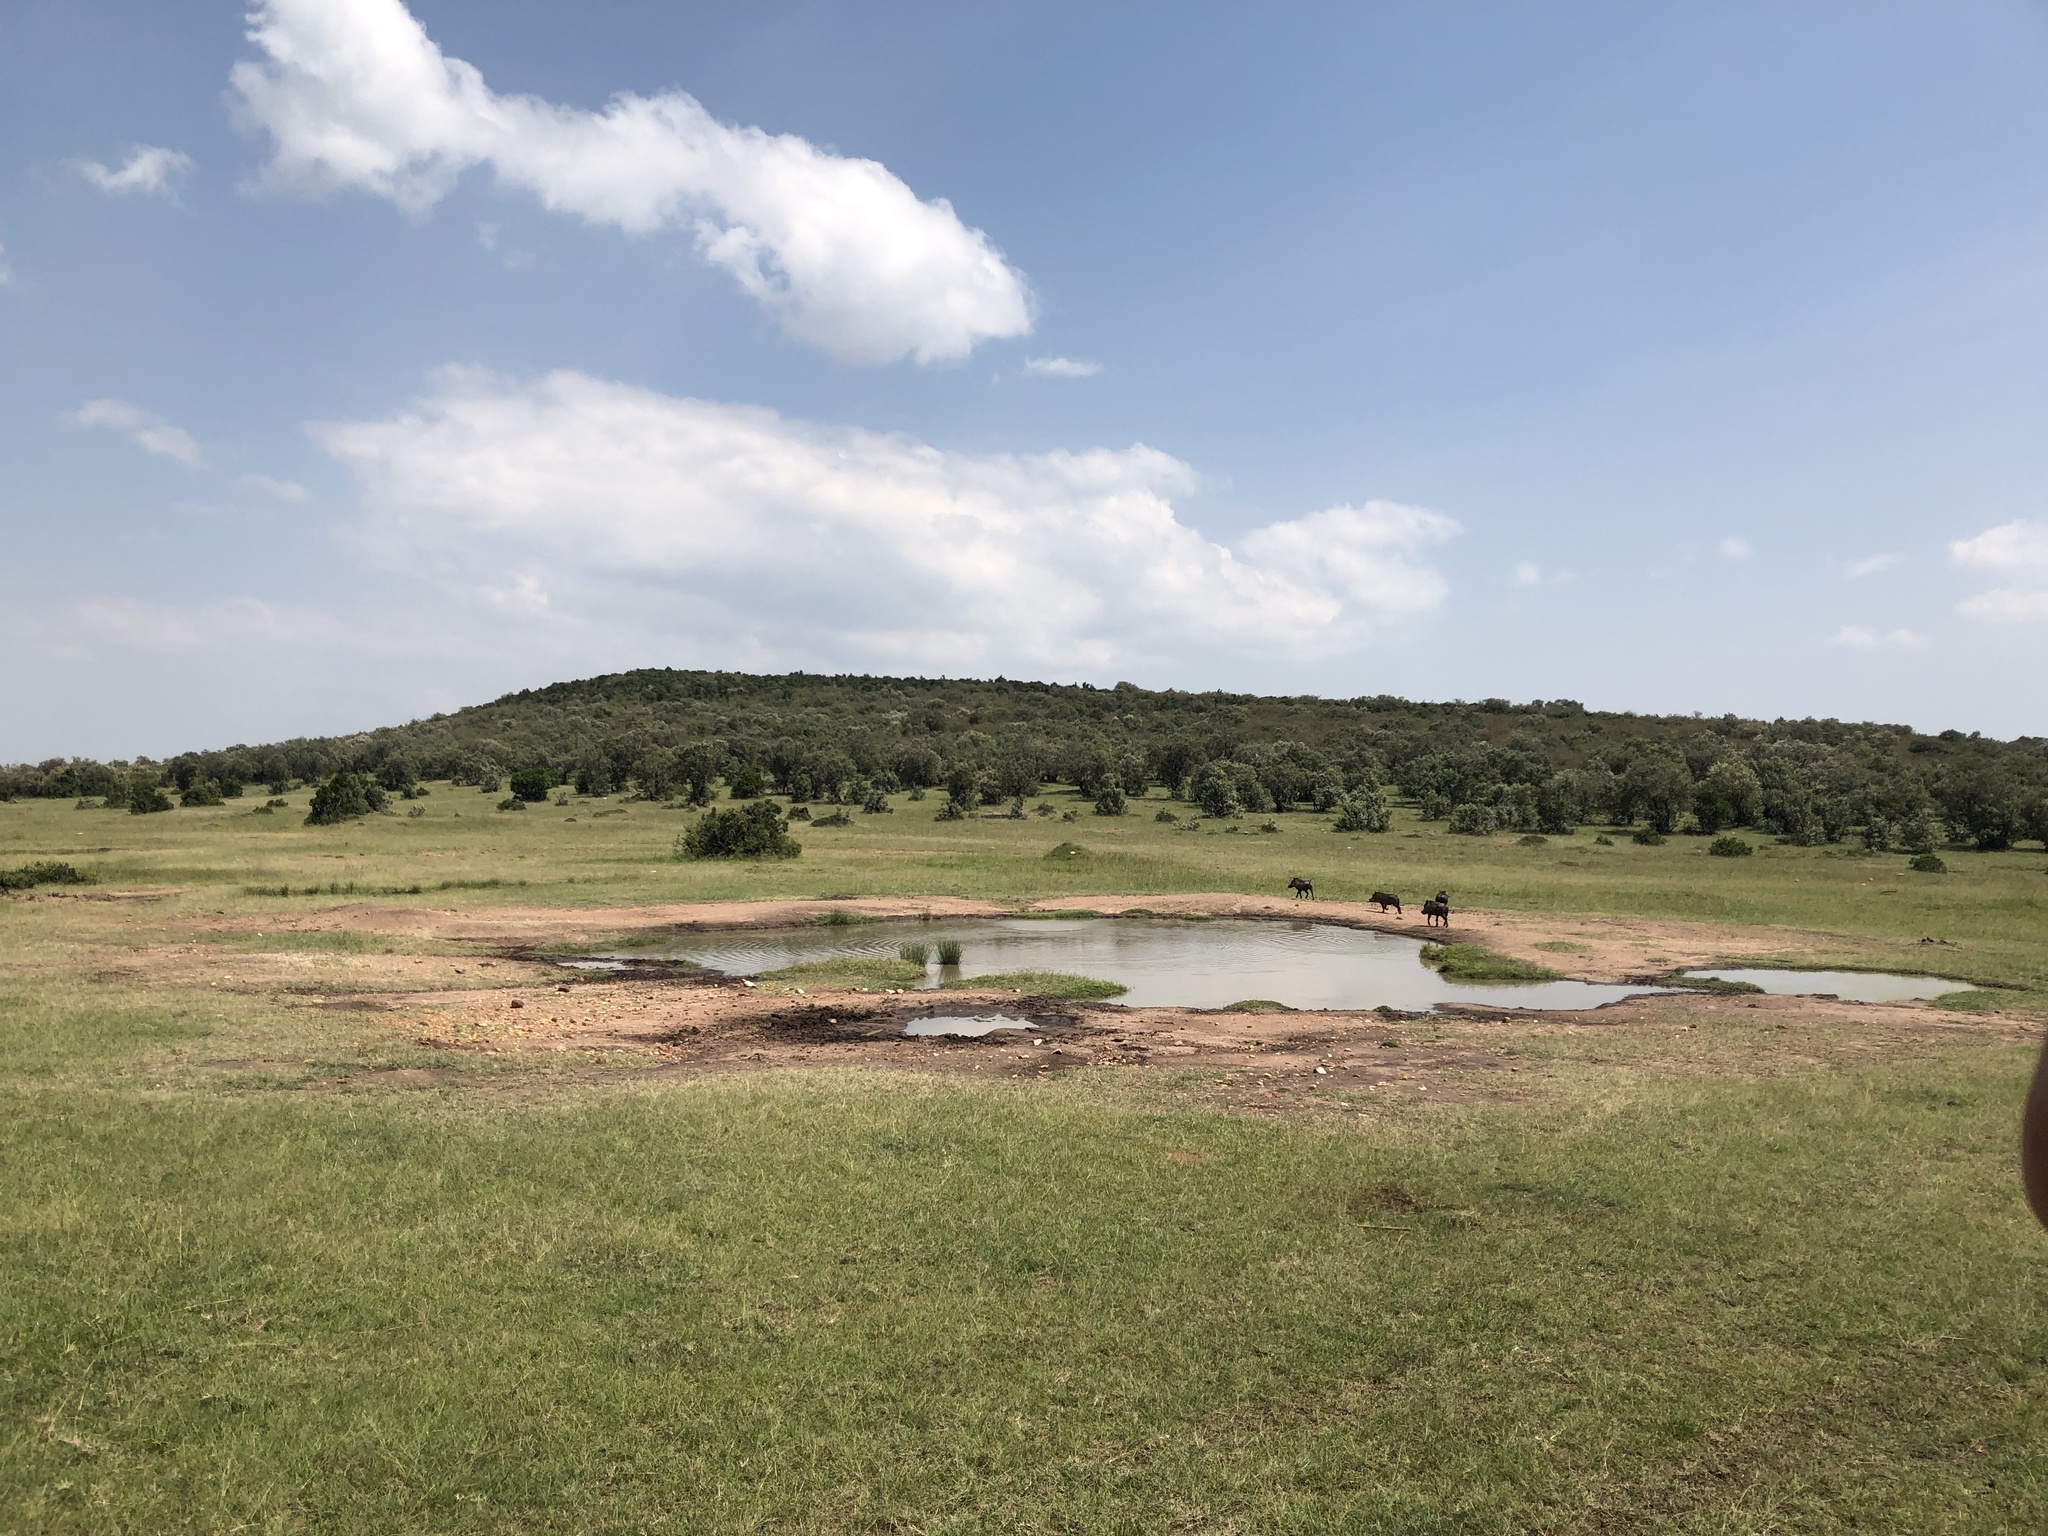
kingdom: Animalia
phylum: Chordata
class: Mammalia
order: Artiodactyla
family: Suidae
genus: Phacochoerus
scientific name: Phacochoerus africanus
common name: Common warthog
